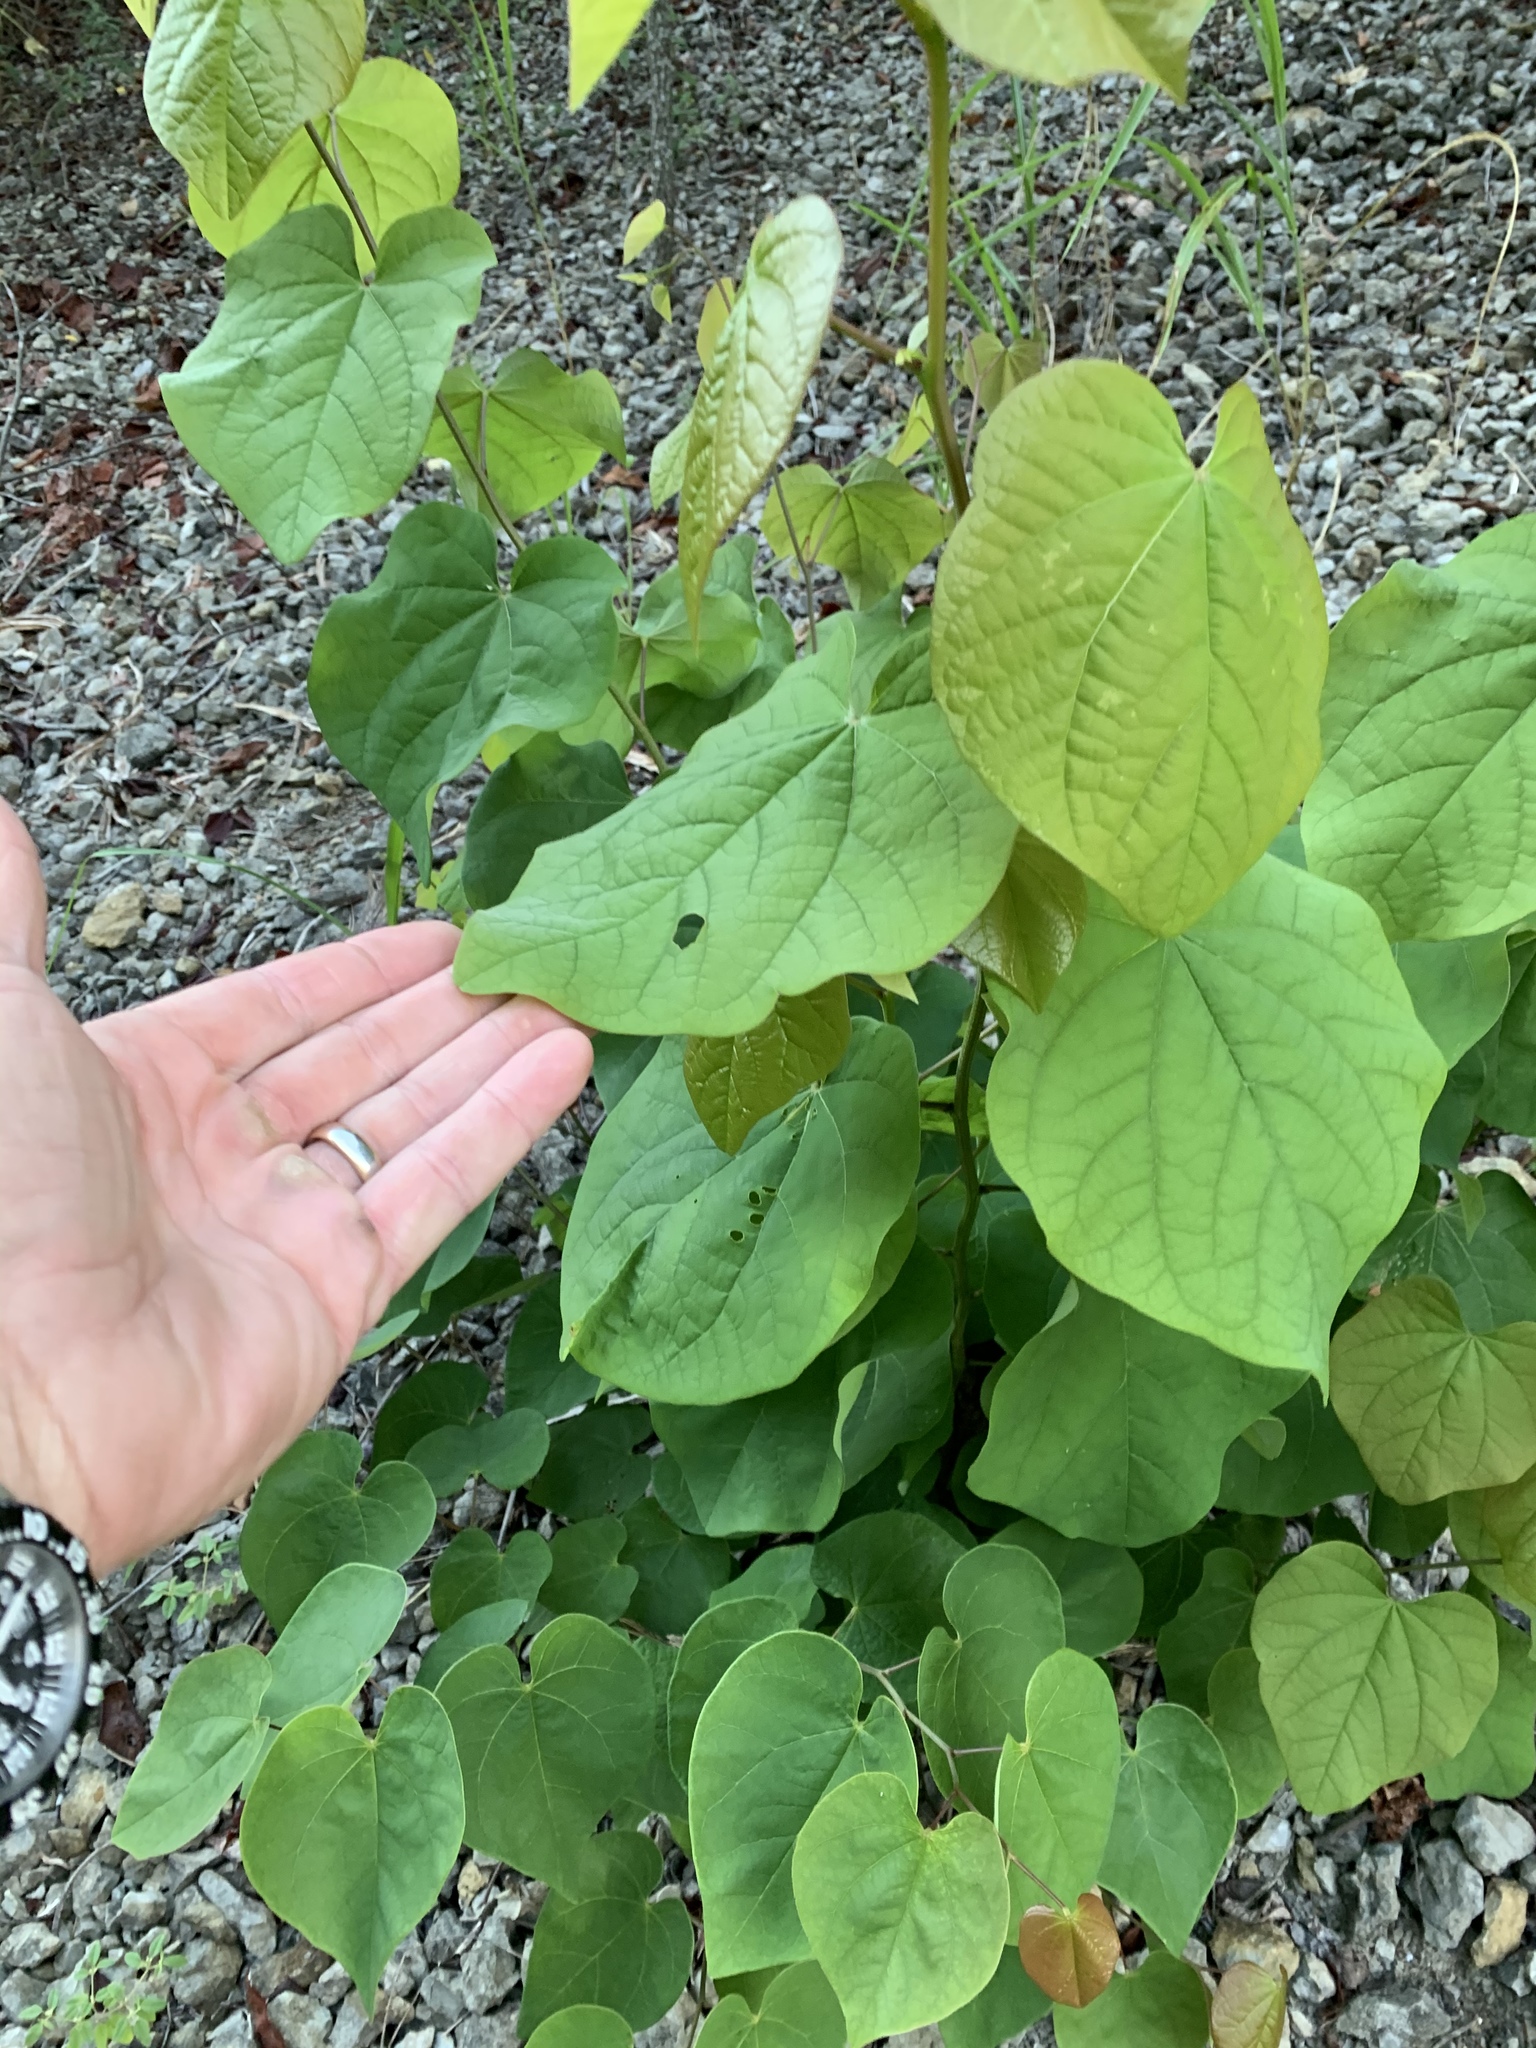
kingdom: Plantae
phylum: Tracheophyta
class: Magnoliopsida
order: Fabales
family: Fabaceae
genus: Cercis
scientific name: Cercis canadensis
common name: Eastern redbud
